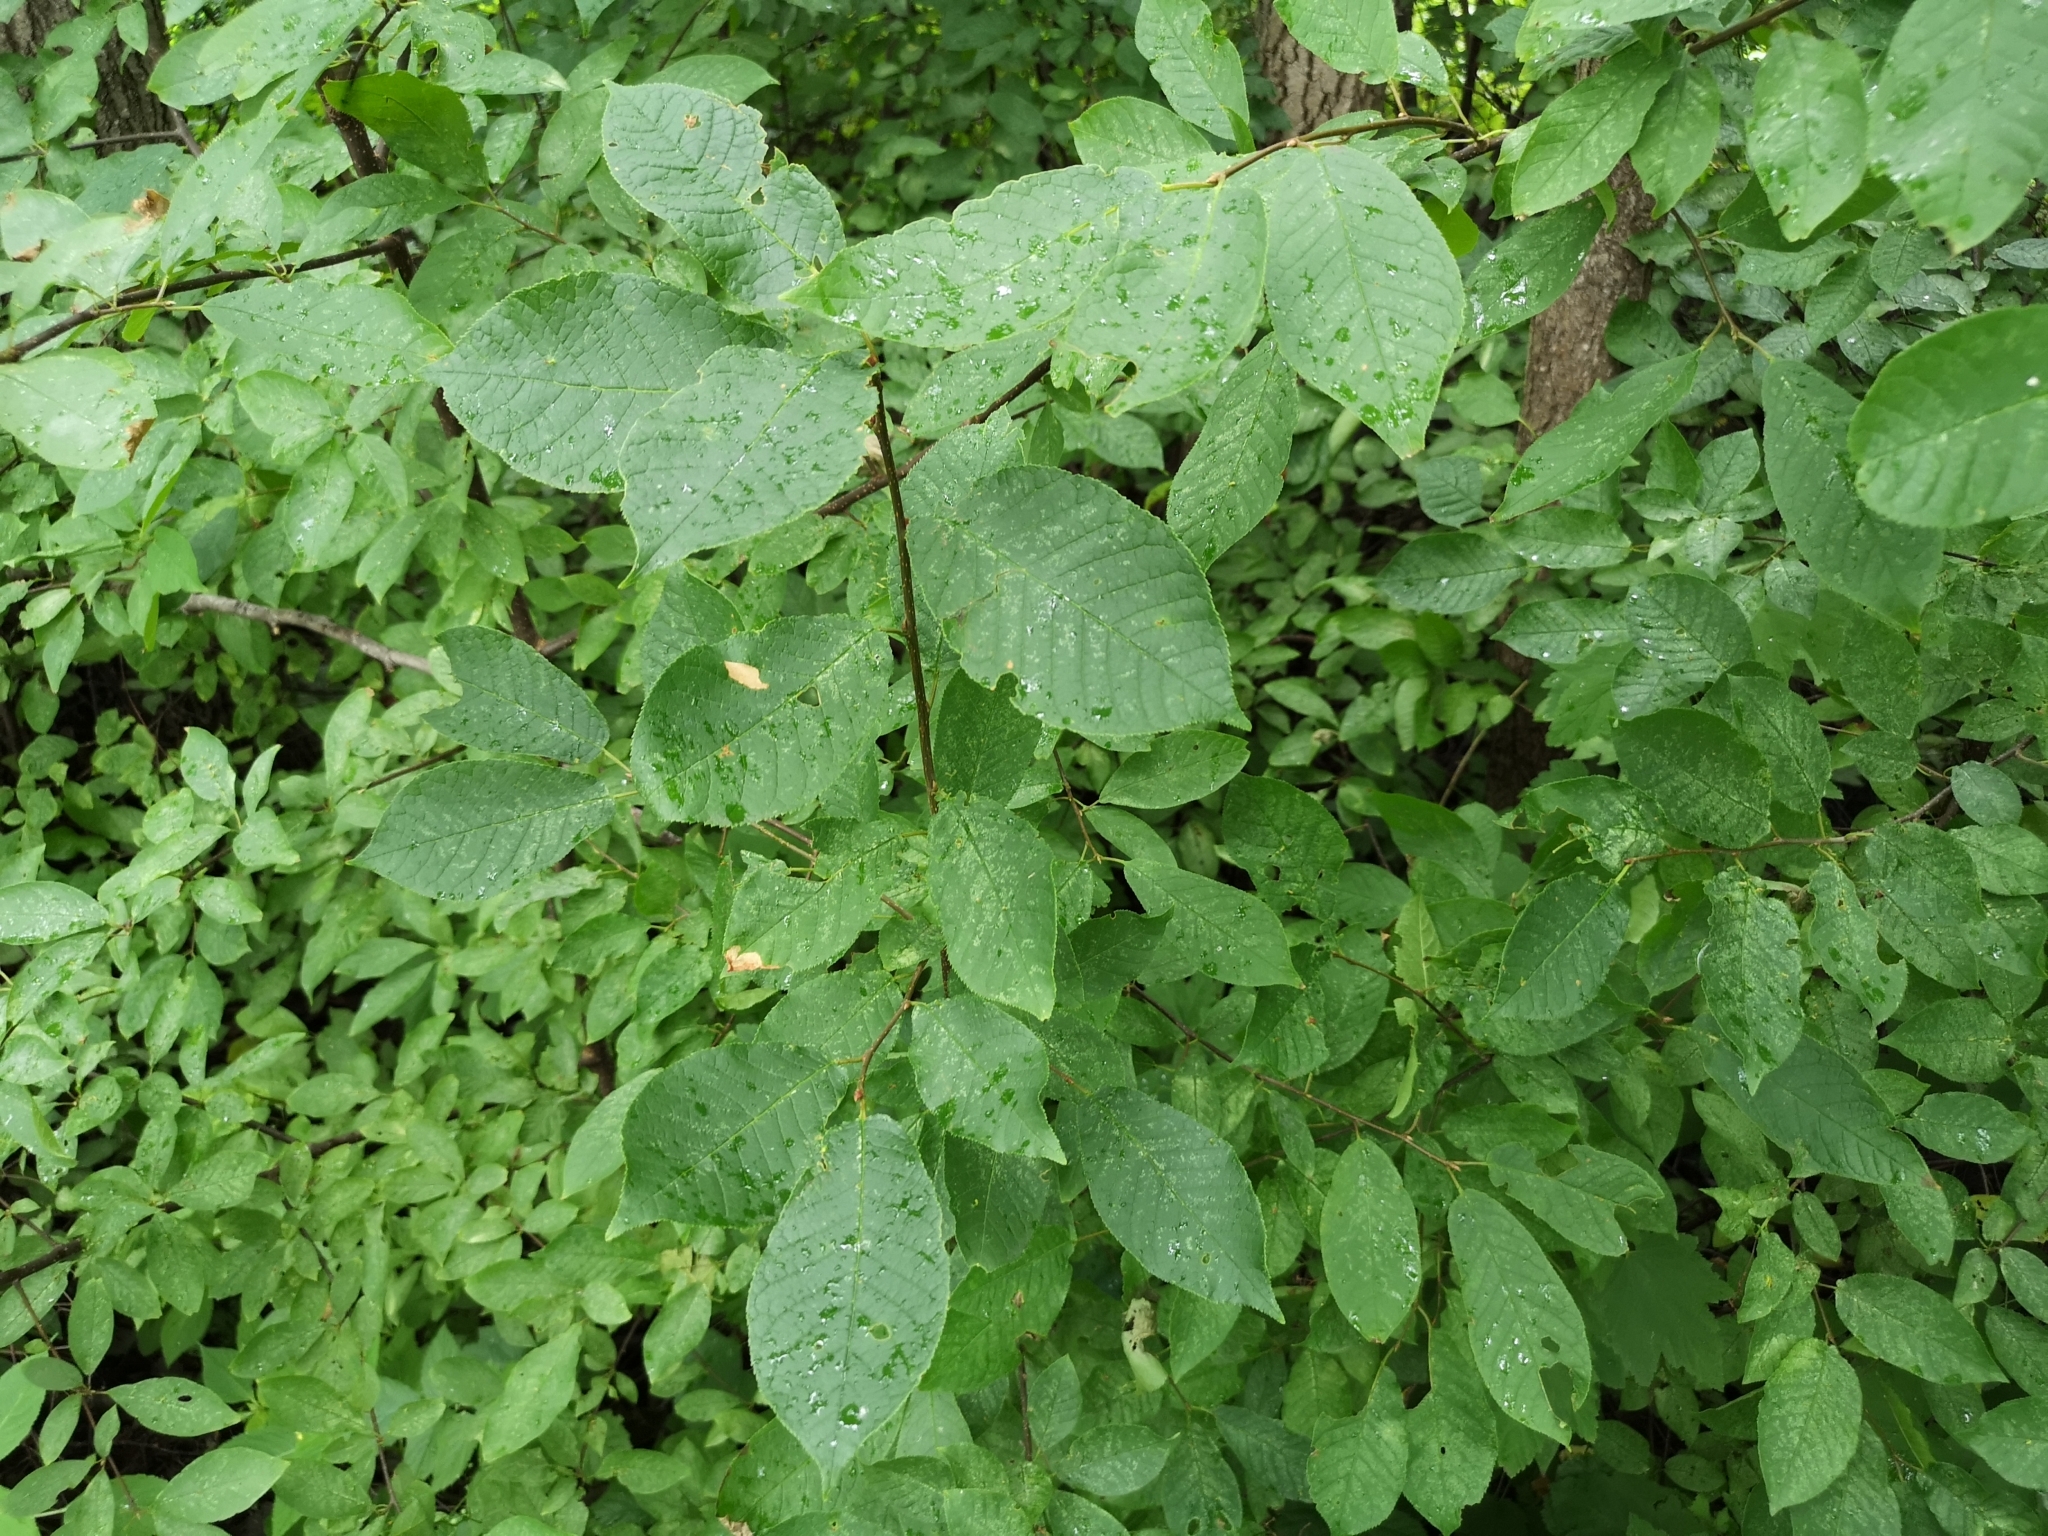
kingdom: Plantae
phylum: Tracheophyta
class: Magnoliopsida
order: Rosales
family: Rosaceae
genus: Prunus
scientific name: Prunus padus
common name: Bird cherry
